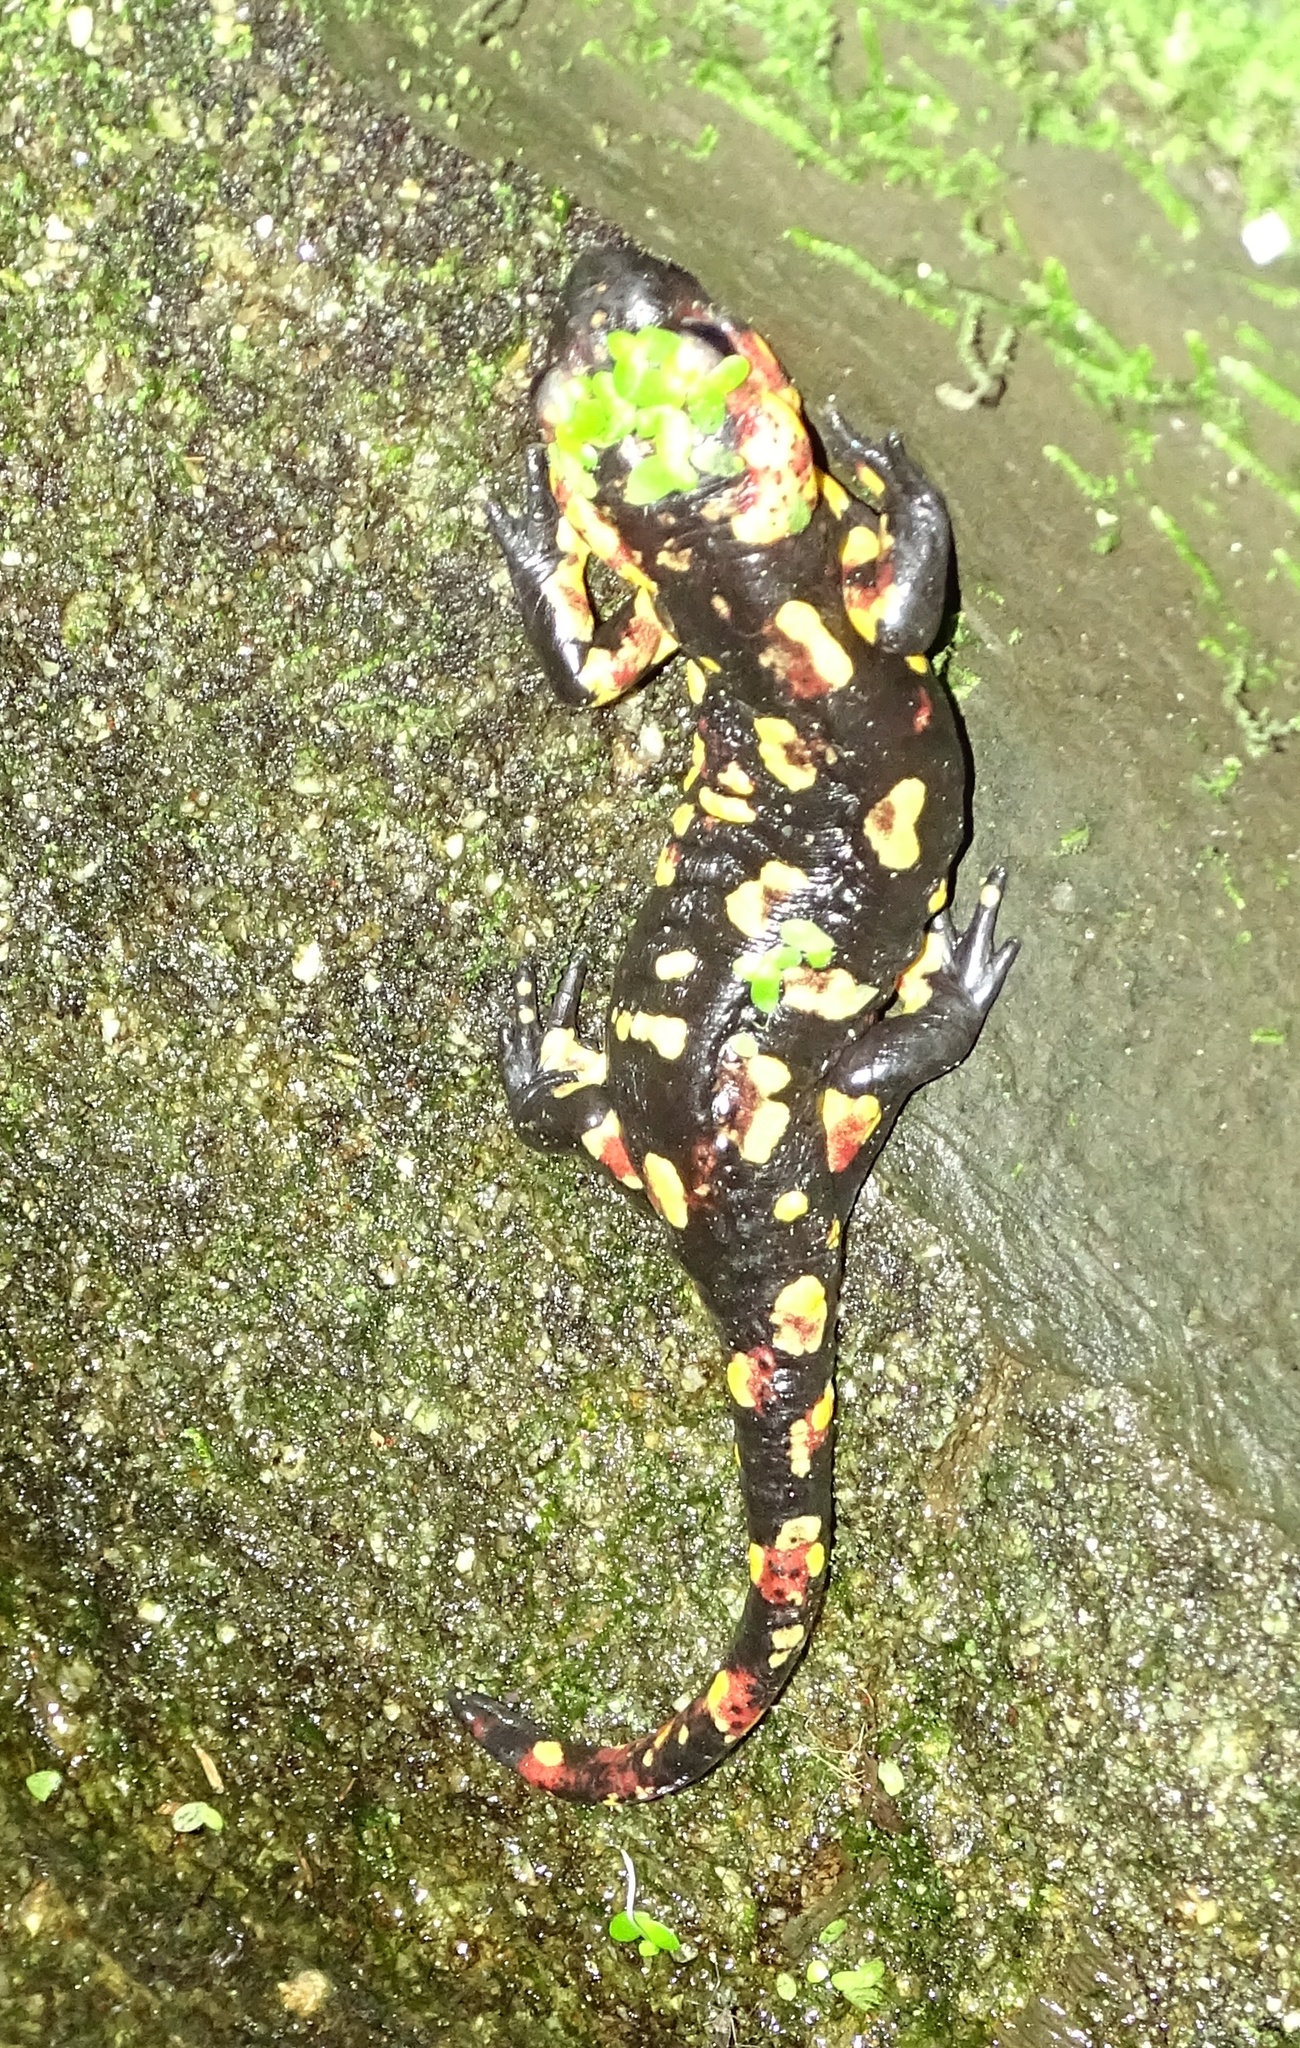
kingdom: Animalia
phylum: Chordata
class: Amphibia
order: Caudata
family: Salamandridae
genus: Salamandra
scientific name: Salamandra salamandra
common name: Fire salamander
